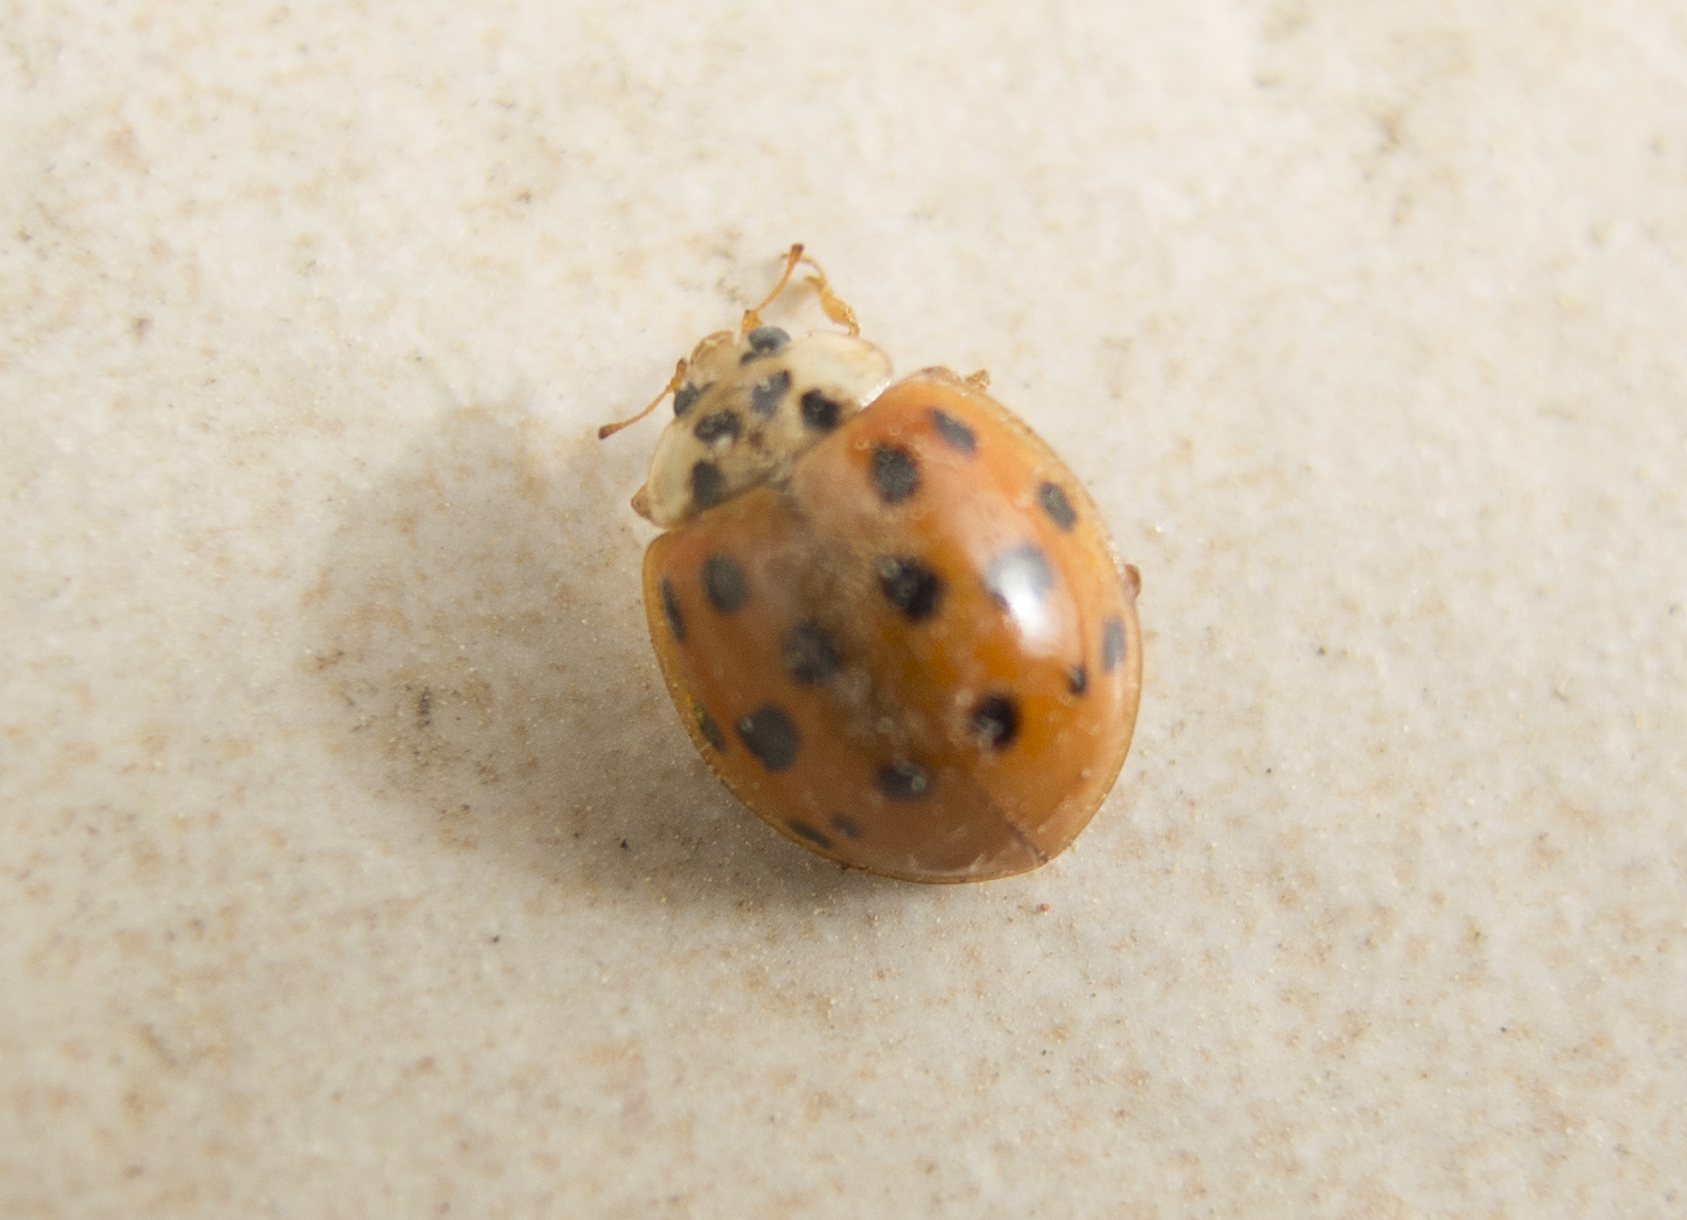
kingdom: Animalia
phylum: Arthropoda
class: Insecta
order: Coleoptera
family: Coccinellidae
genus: Harmonia
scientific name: Harmonia axyridis
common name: Harlequin ladybird
